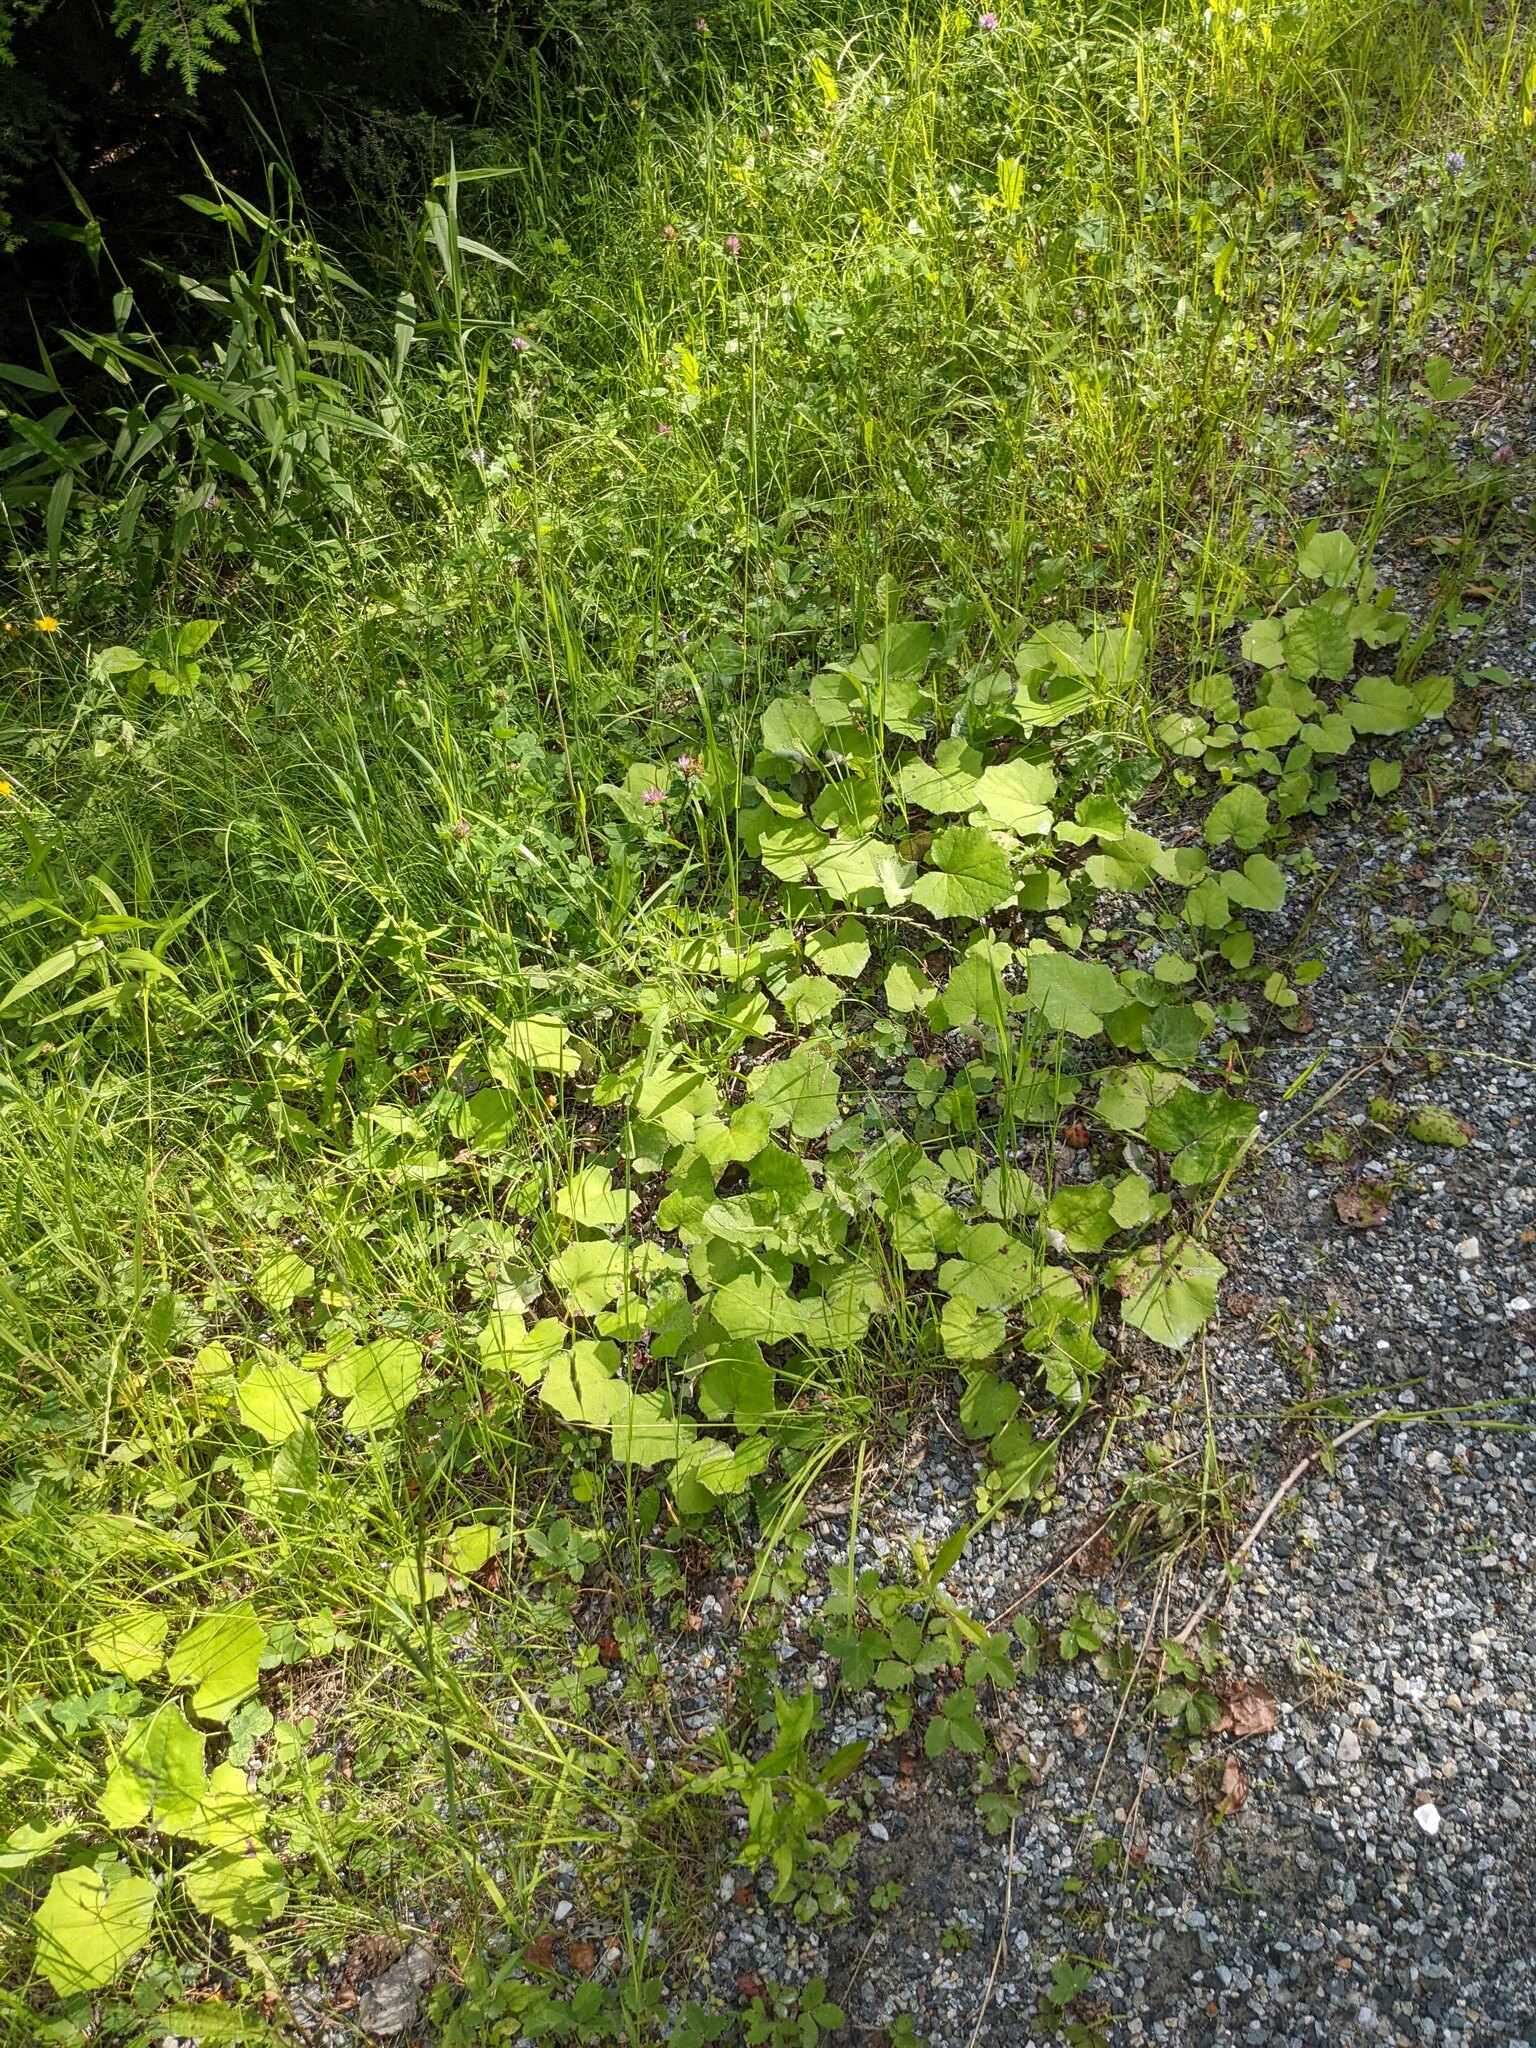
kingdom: Plantae
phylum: Tracheophyta
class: Magnoliopsida
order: Asterales
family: Asteraceae
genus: Tussilago
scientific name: Tussilago farfara
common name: Coltsfoot
